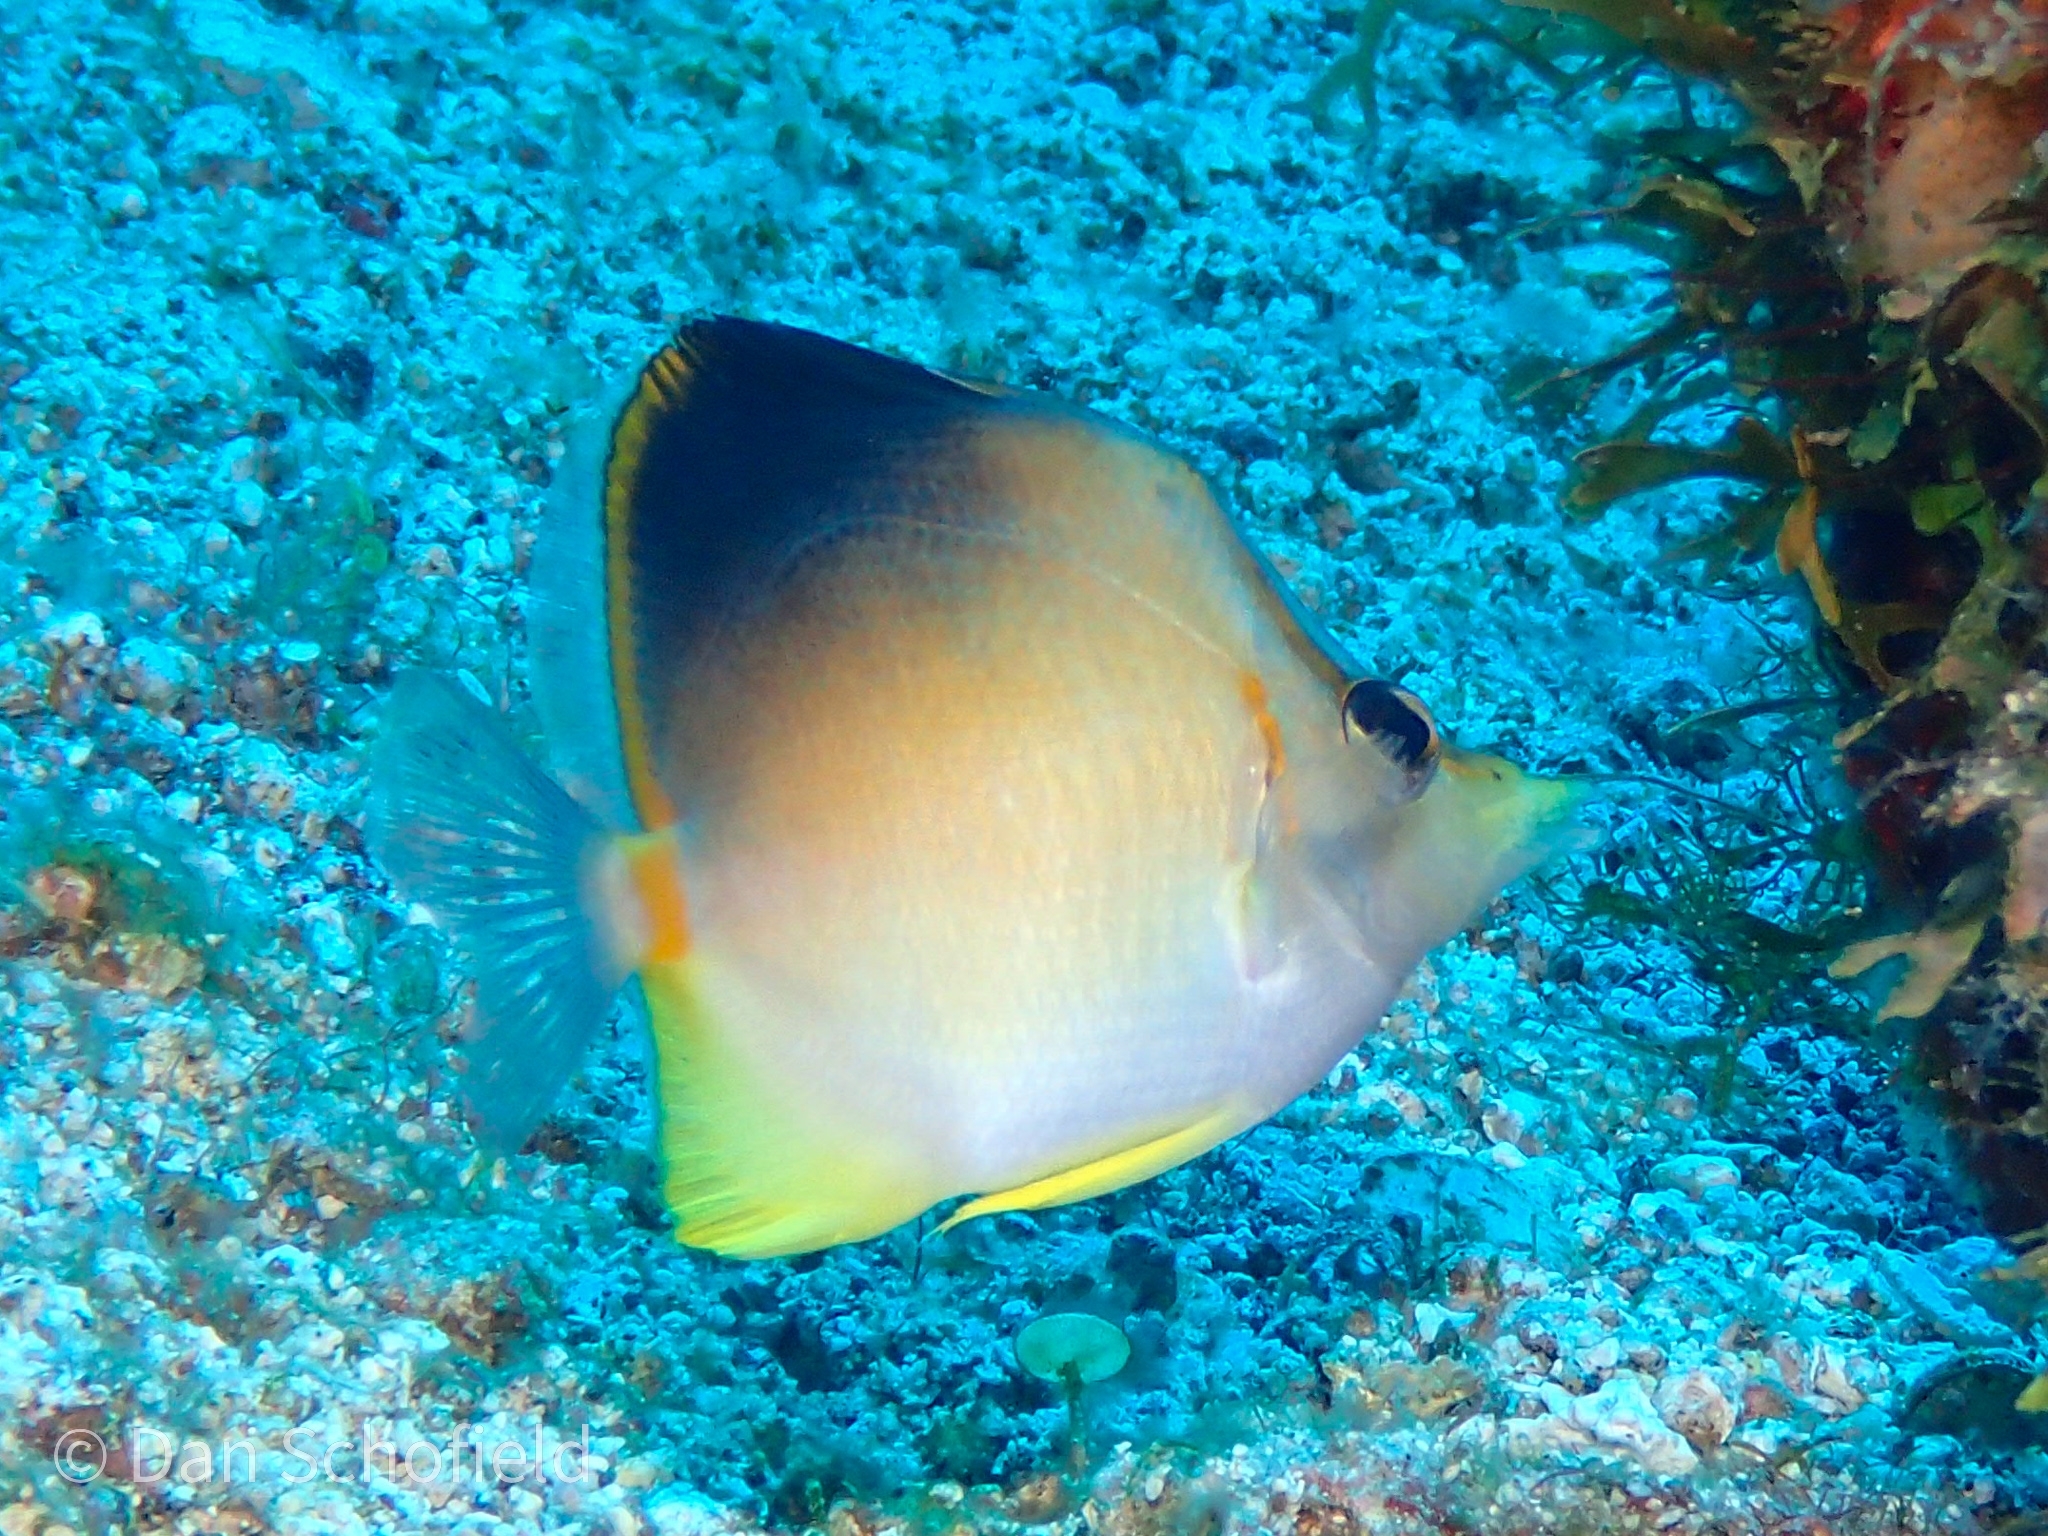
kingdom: Animalia
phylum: Chordata
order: Perciformes
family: Chaetodontidae
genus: Prognathodes
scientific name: Prognathodes aculeatus
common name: Longsnout butterflyfish
